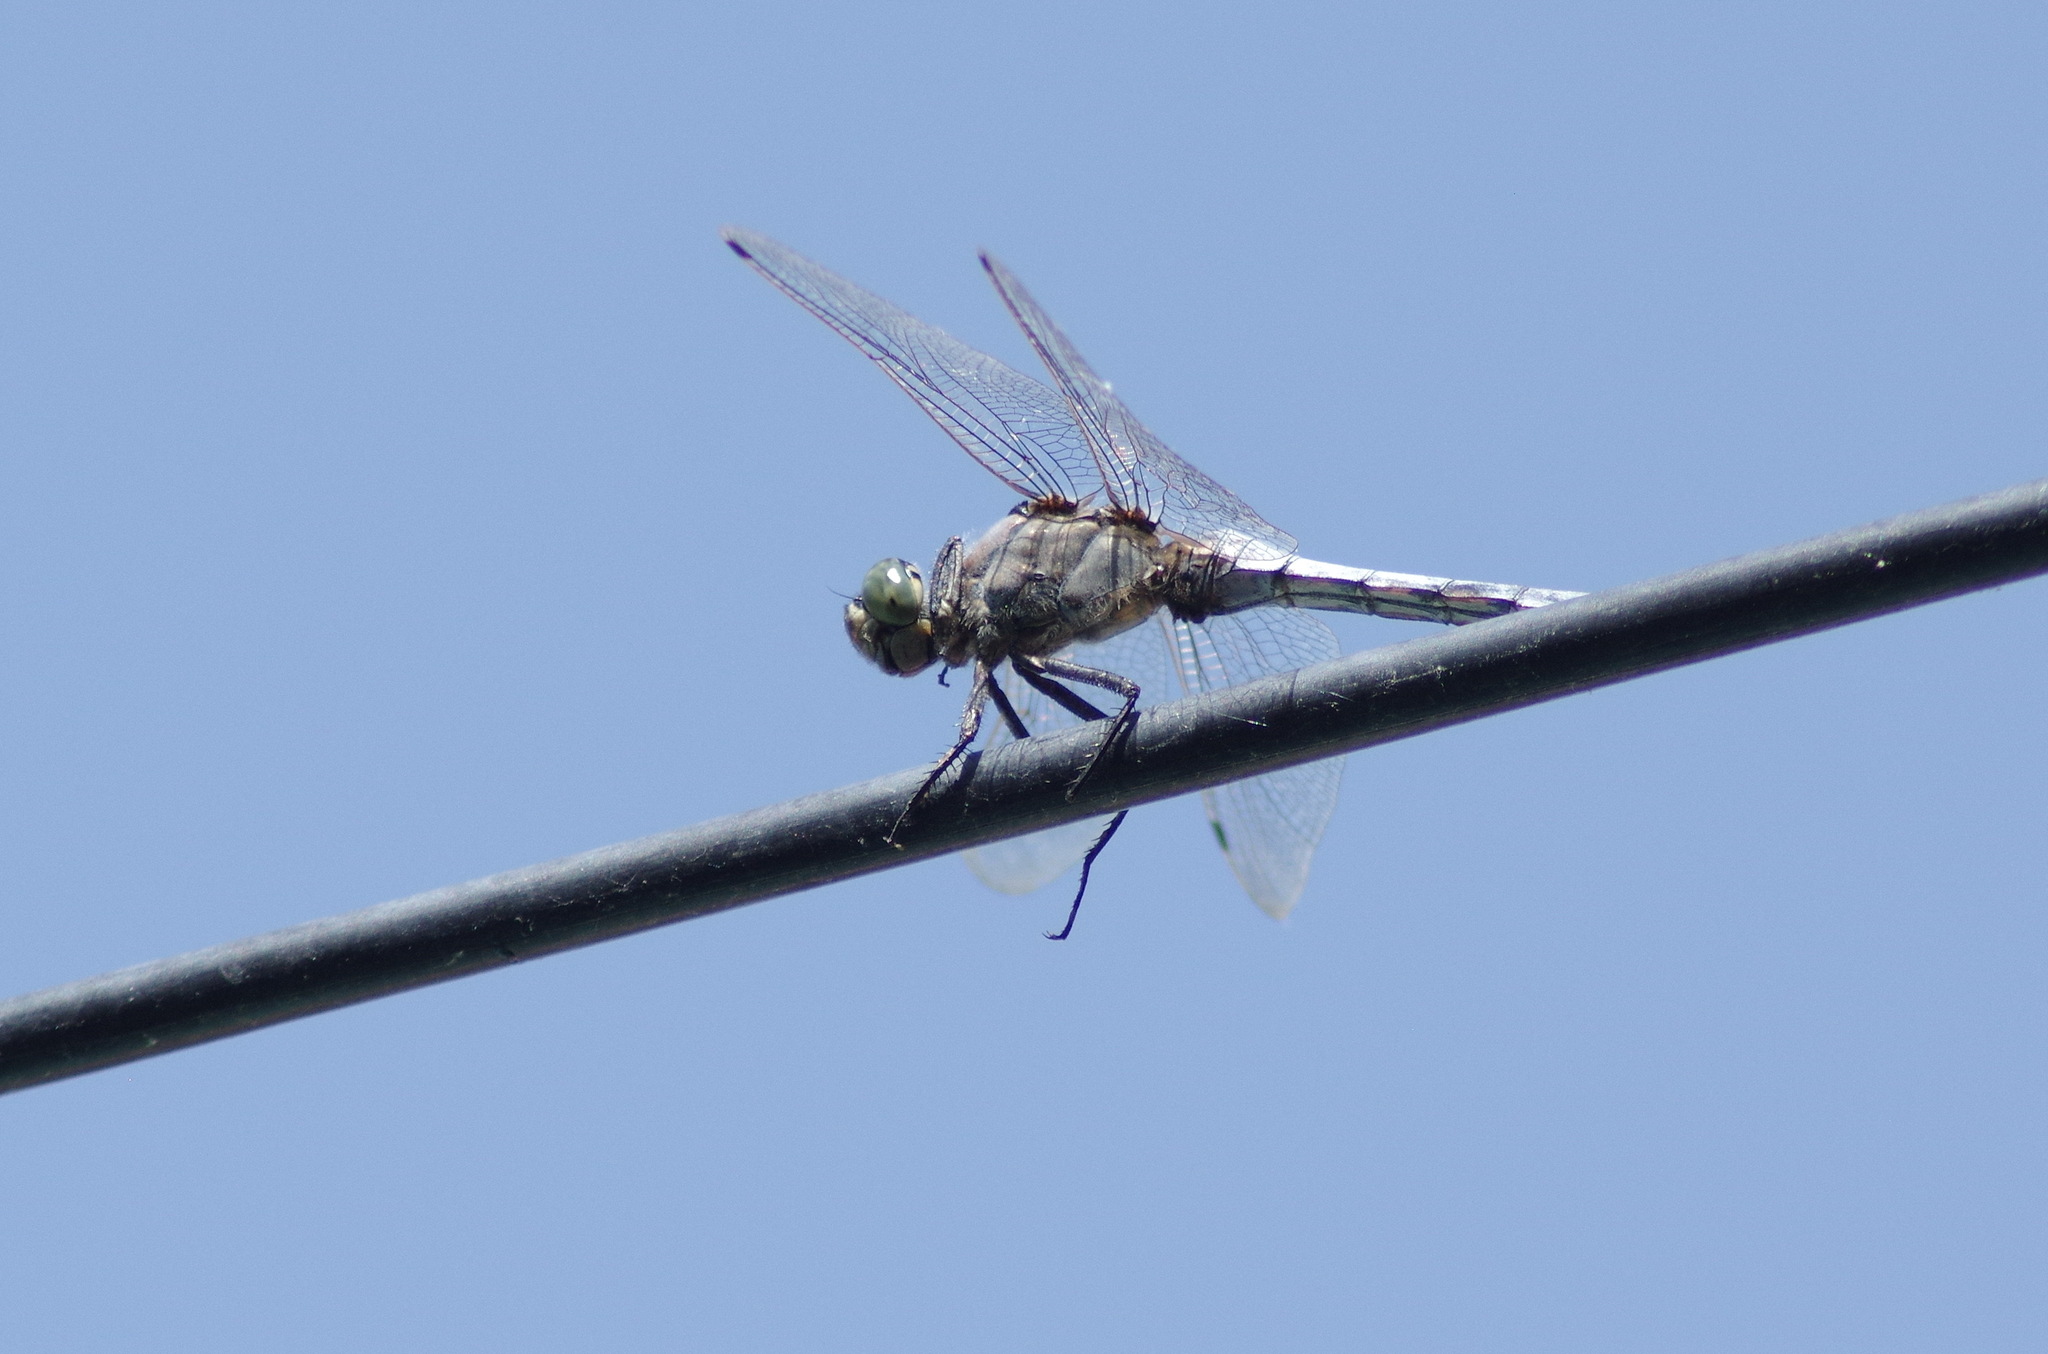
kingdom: Animalia
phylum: Arthropoda
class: Insecta
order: Odonata
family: Libellulidae
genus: Orthetrum
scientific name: Orthetrum cancellatum
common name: Black-tailed skimmer
